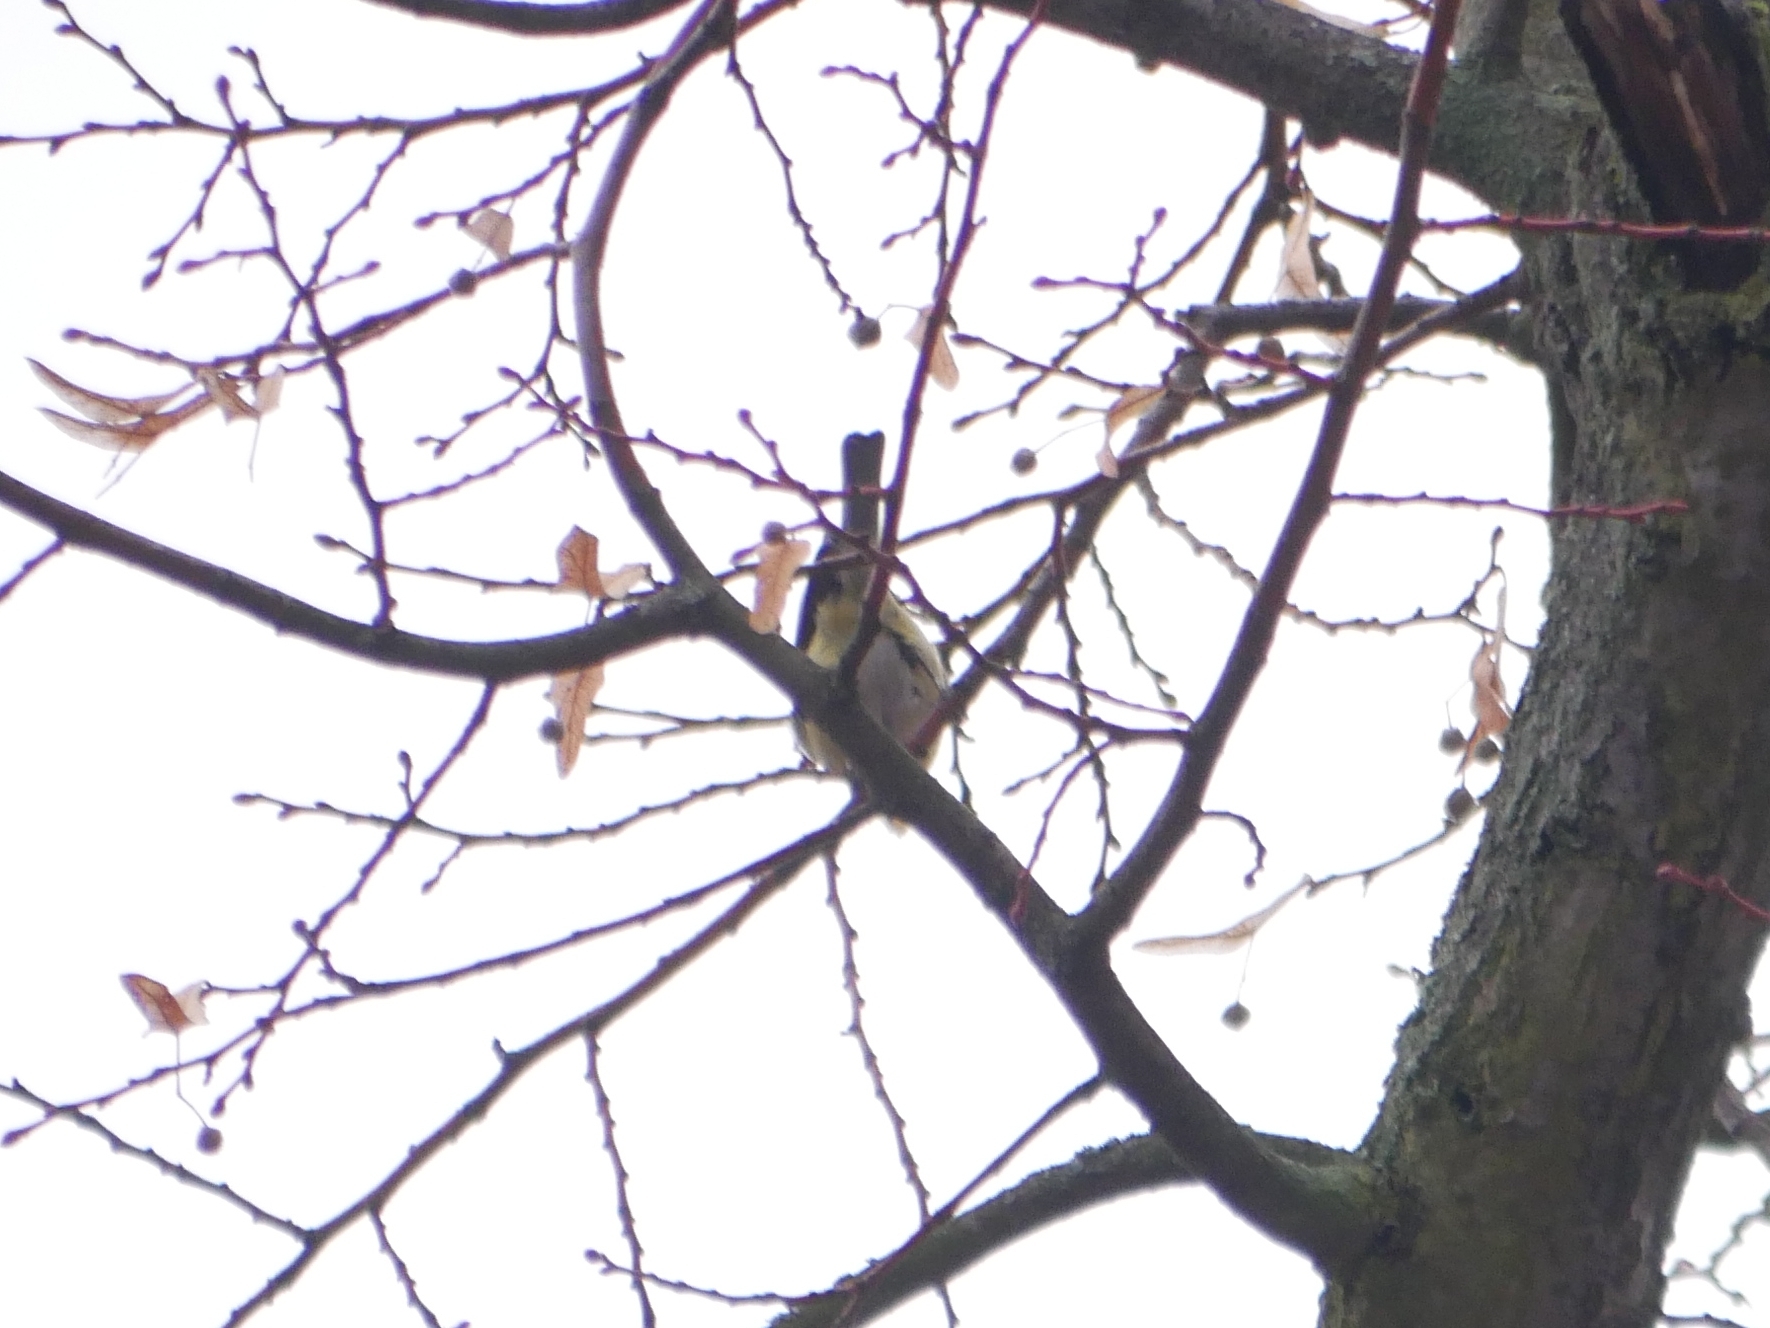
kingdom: Animalia
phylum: Chordata
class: Aves
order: Passeriformes
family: Paridae
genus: Cyanistes
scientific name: Cyanistes caeruleus
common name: Eurasian blue tit
